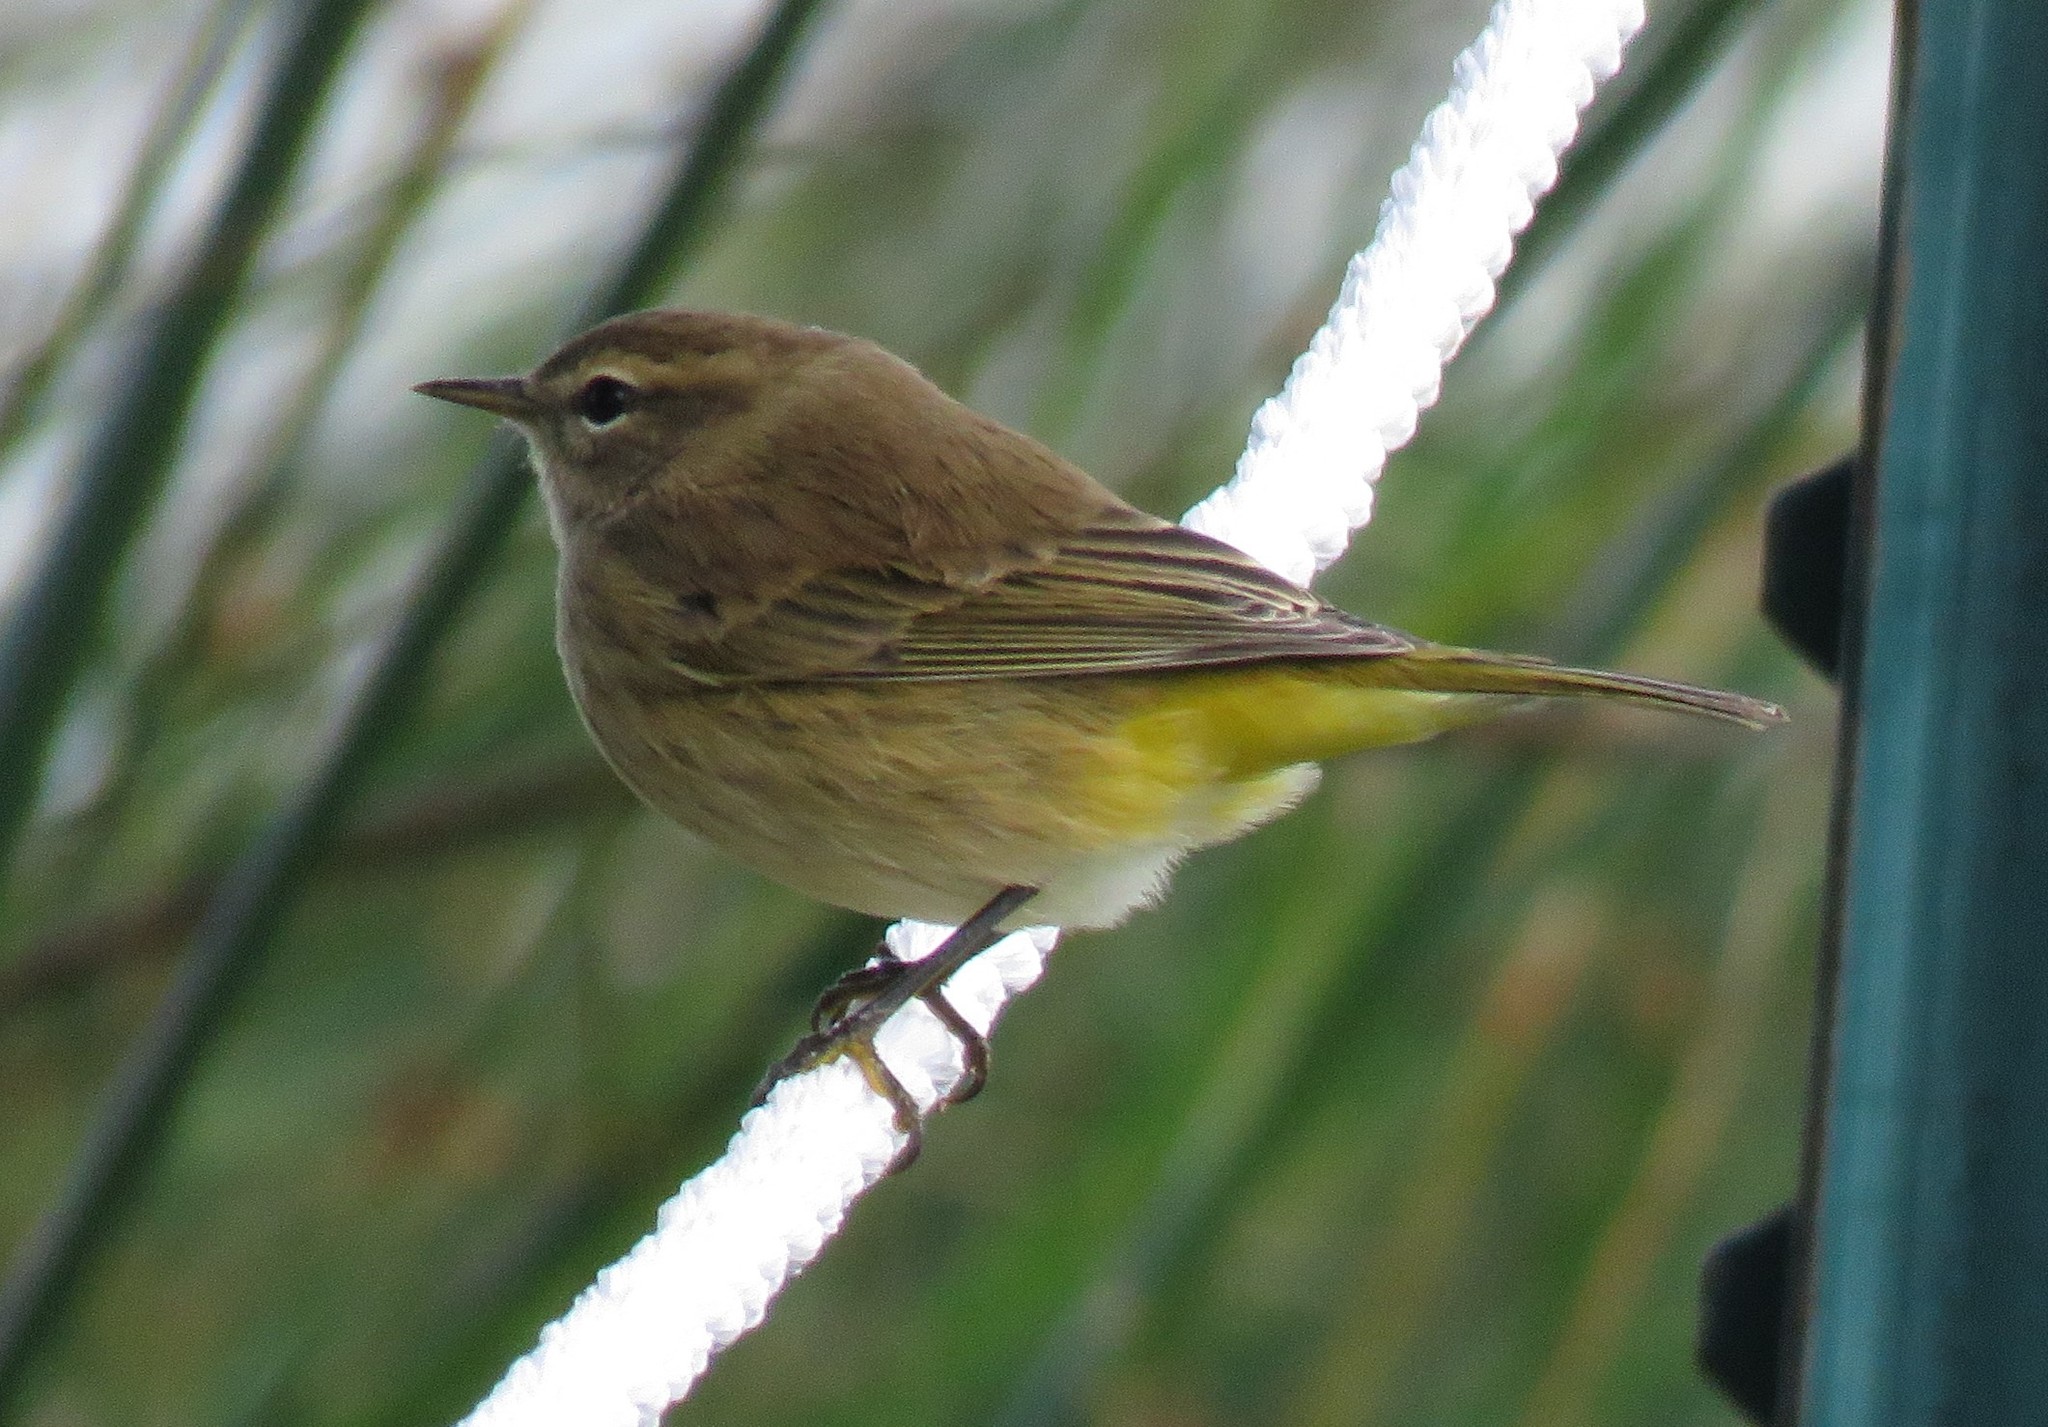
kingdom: Animalia
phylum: Chordata
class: Aves
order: Passeriformes
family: Parulidae
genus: Setophaga
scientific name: Setophaga palmarum
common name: Palm warbler
